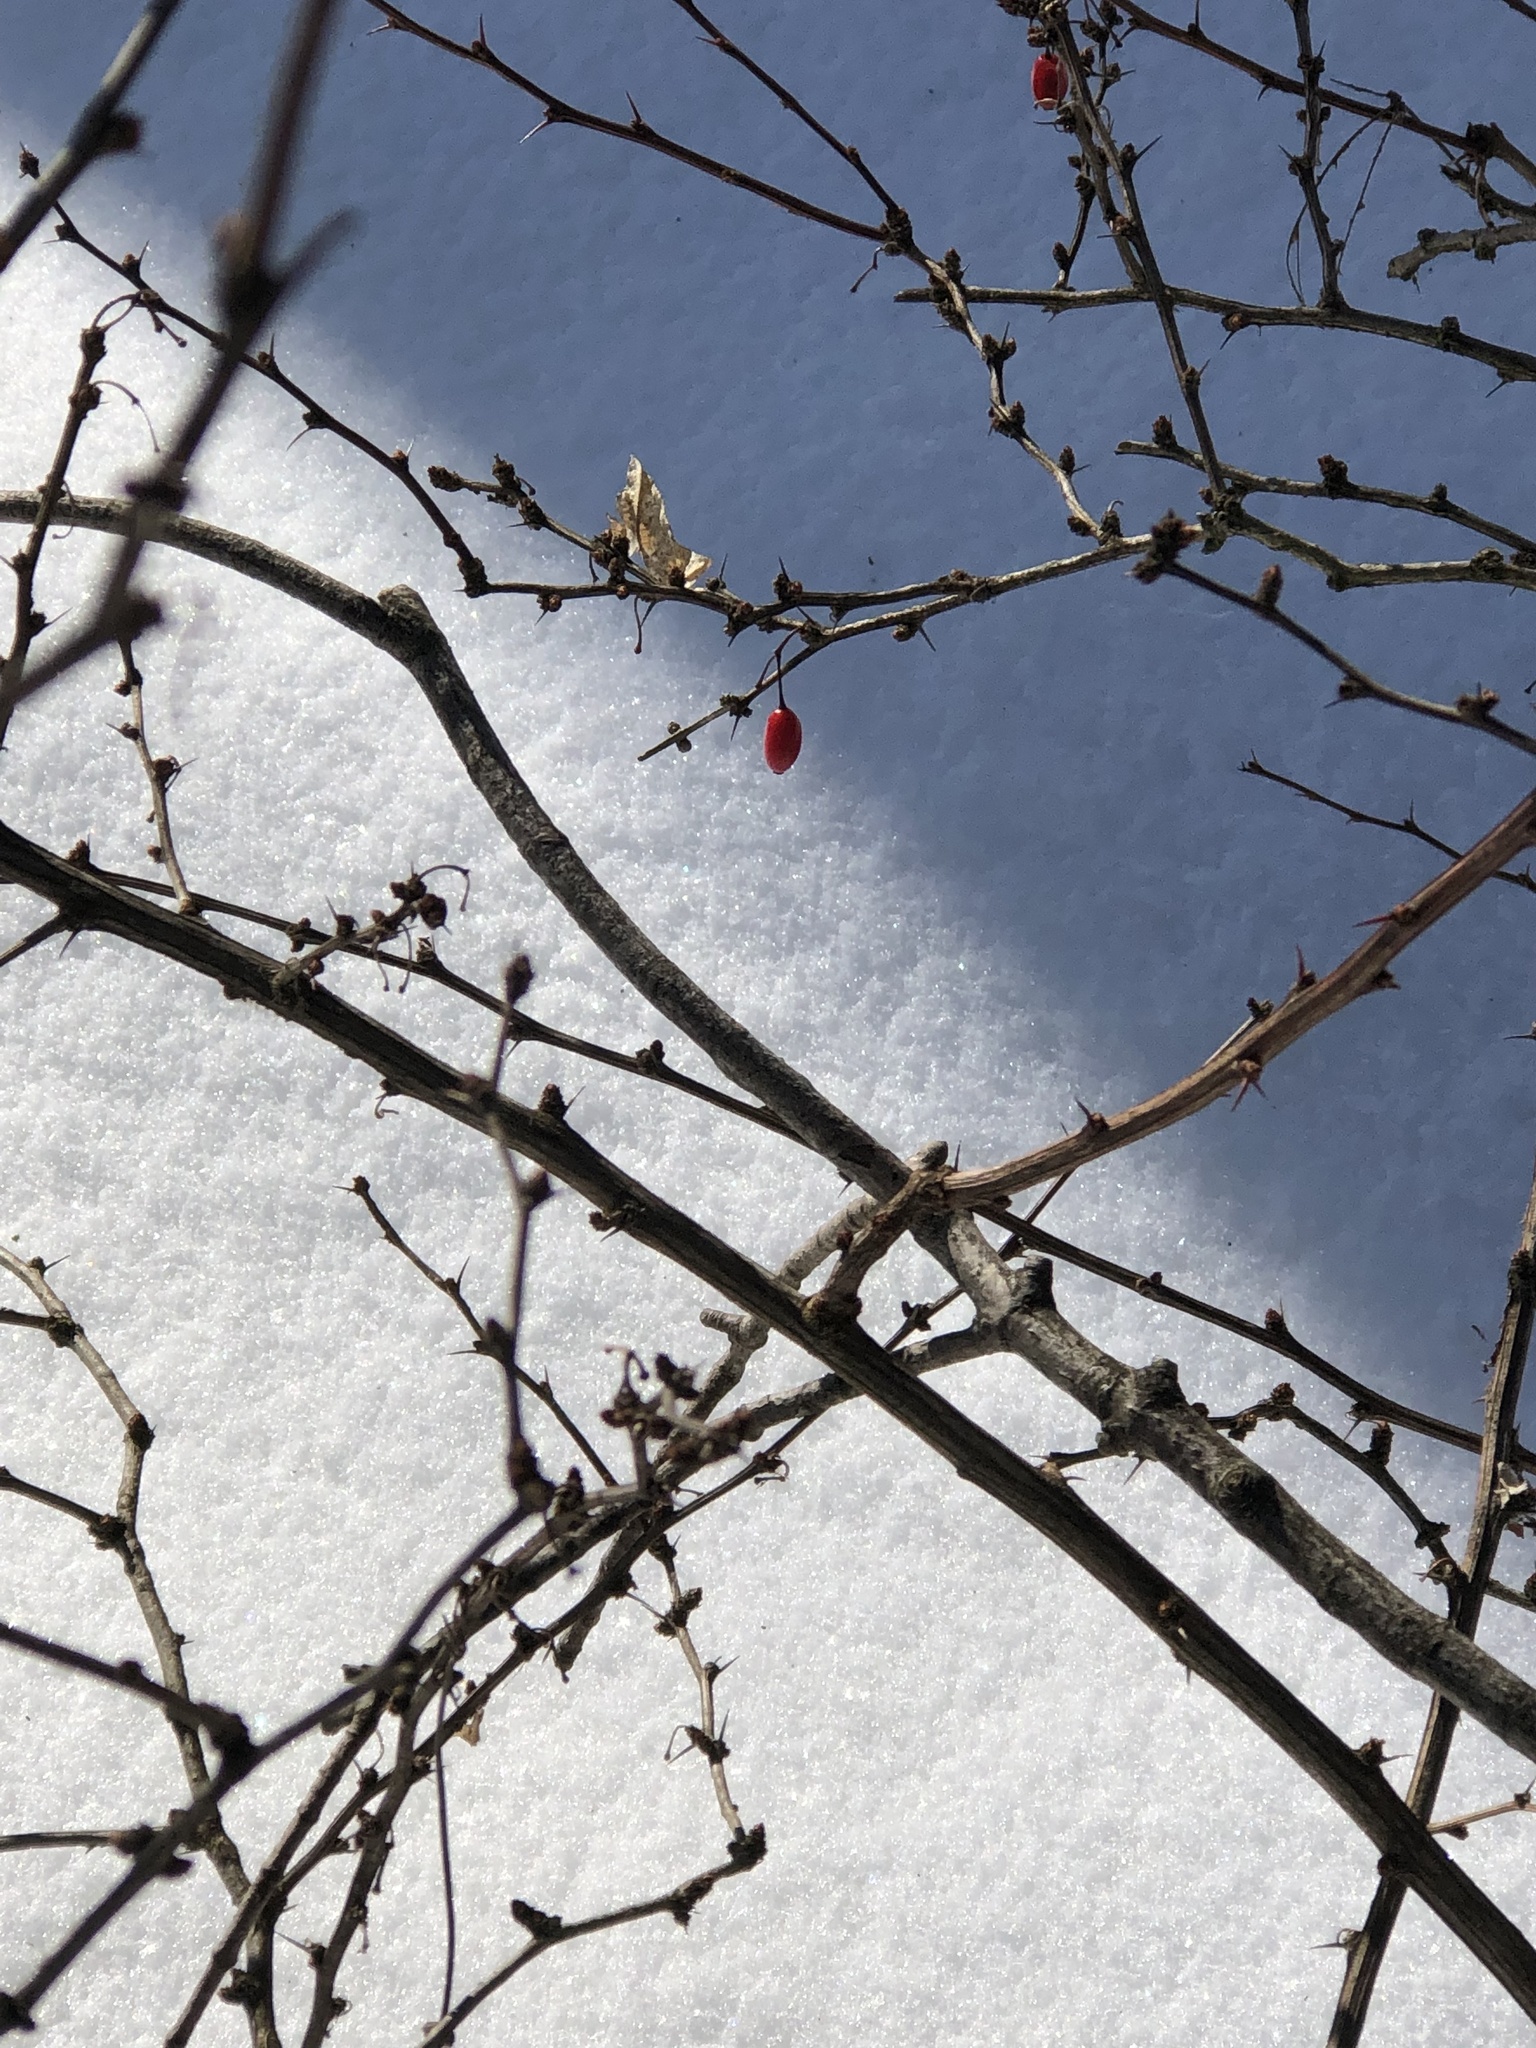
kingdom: Plantae
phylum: Tracheophyta
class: Magnoliopsida
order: Ranunculales
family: Berberidaceae
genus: Berberis
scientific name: Berberis thunbergii
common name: Japanese barberry
